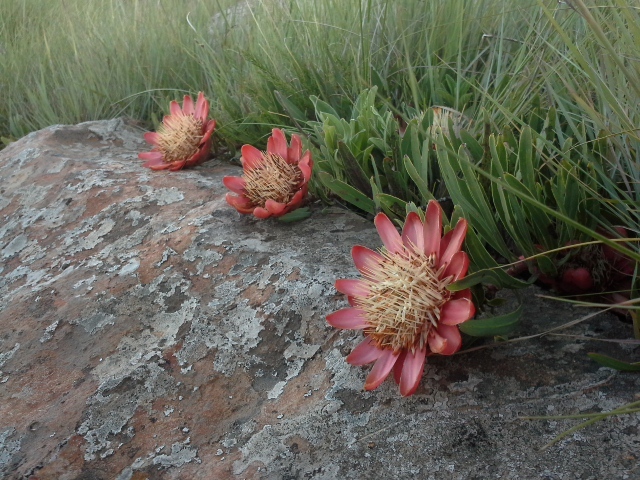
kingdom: Plantae
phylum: Tracheophyta
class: Magnoliopsida
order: Proteales
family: Proteaceae
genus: Protea
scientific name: Protea parvula
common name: Dainty sugarbush
